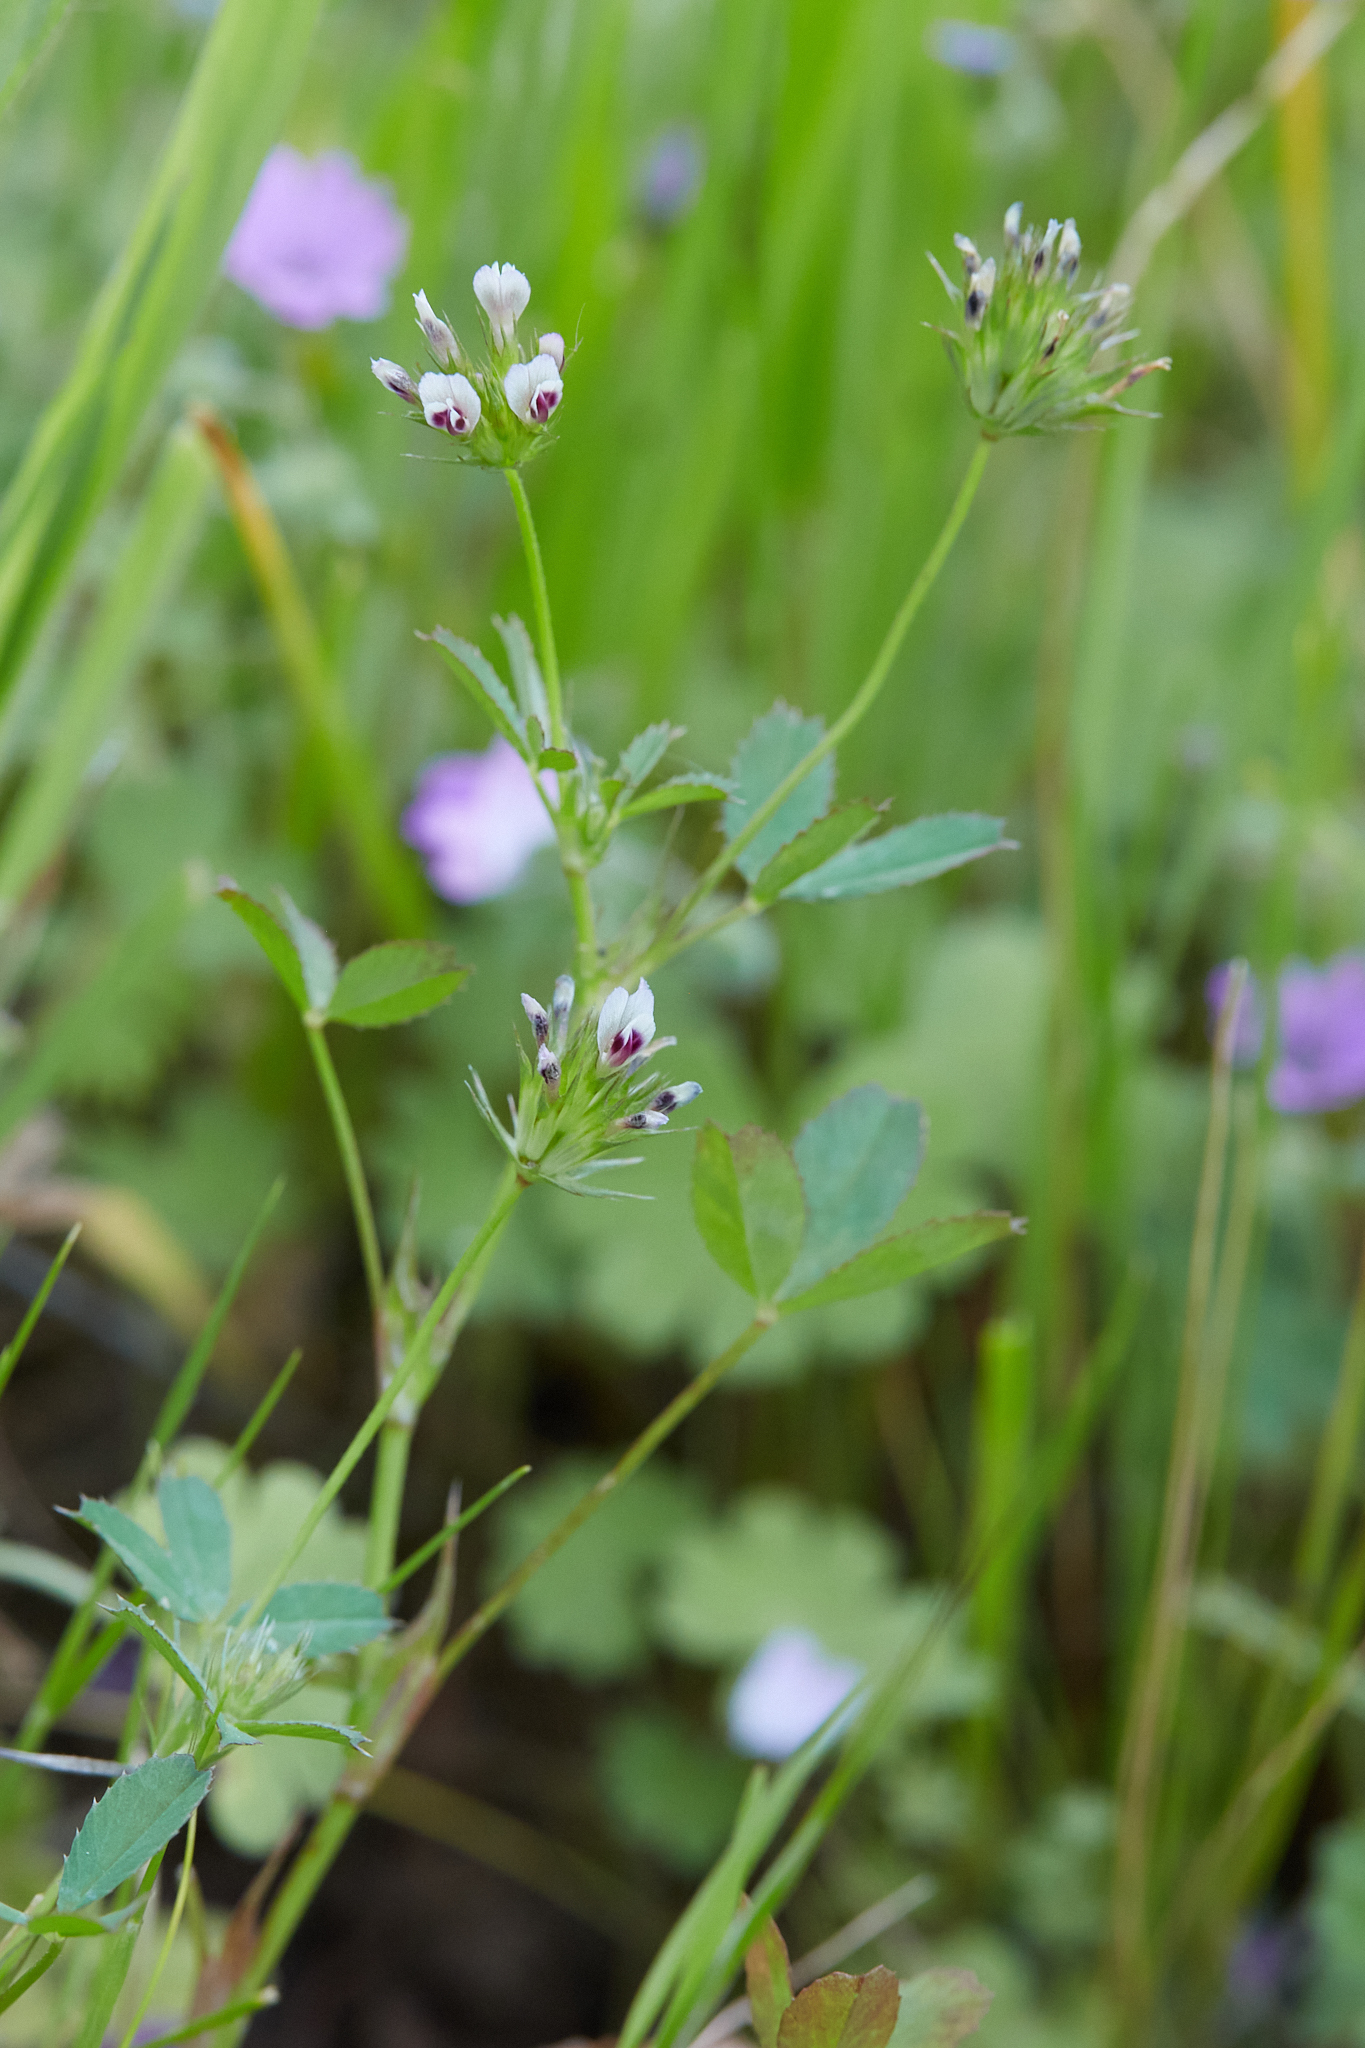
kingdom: Plantae
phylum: Tracheophyta
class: Magnoliopsida
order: Fabales
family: Fabaceae
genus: Trifolium
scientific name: Trifolium oliganthum
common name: Few-flower clover
